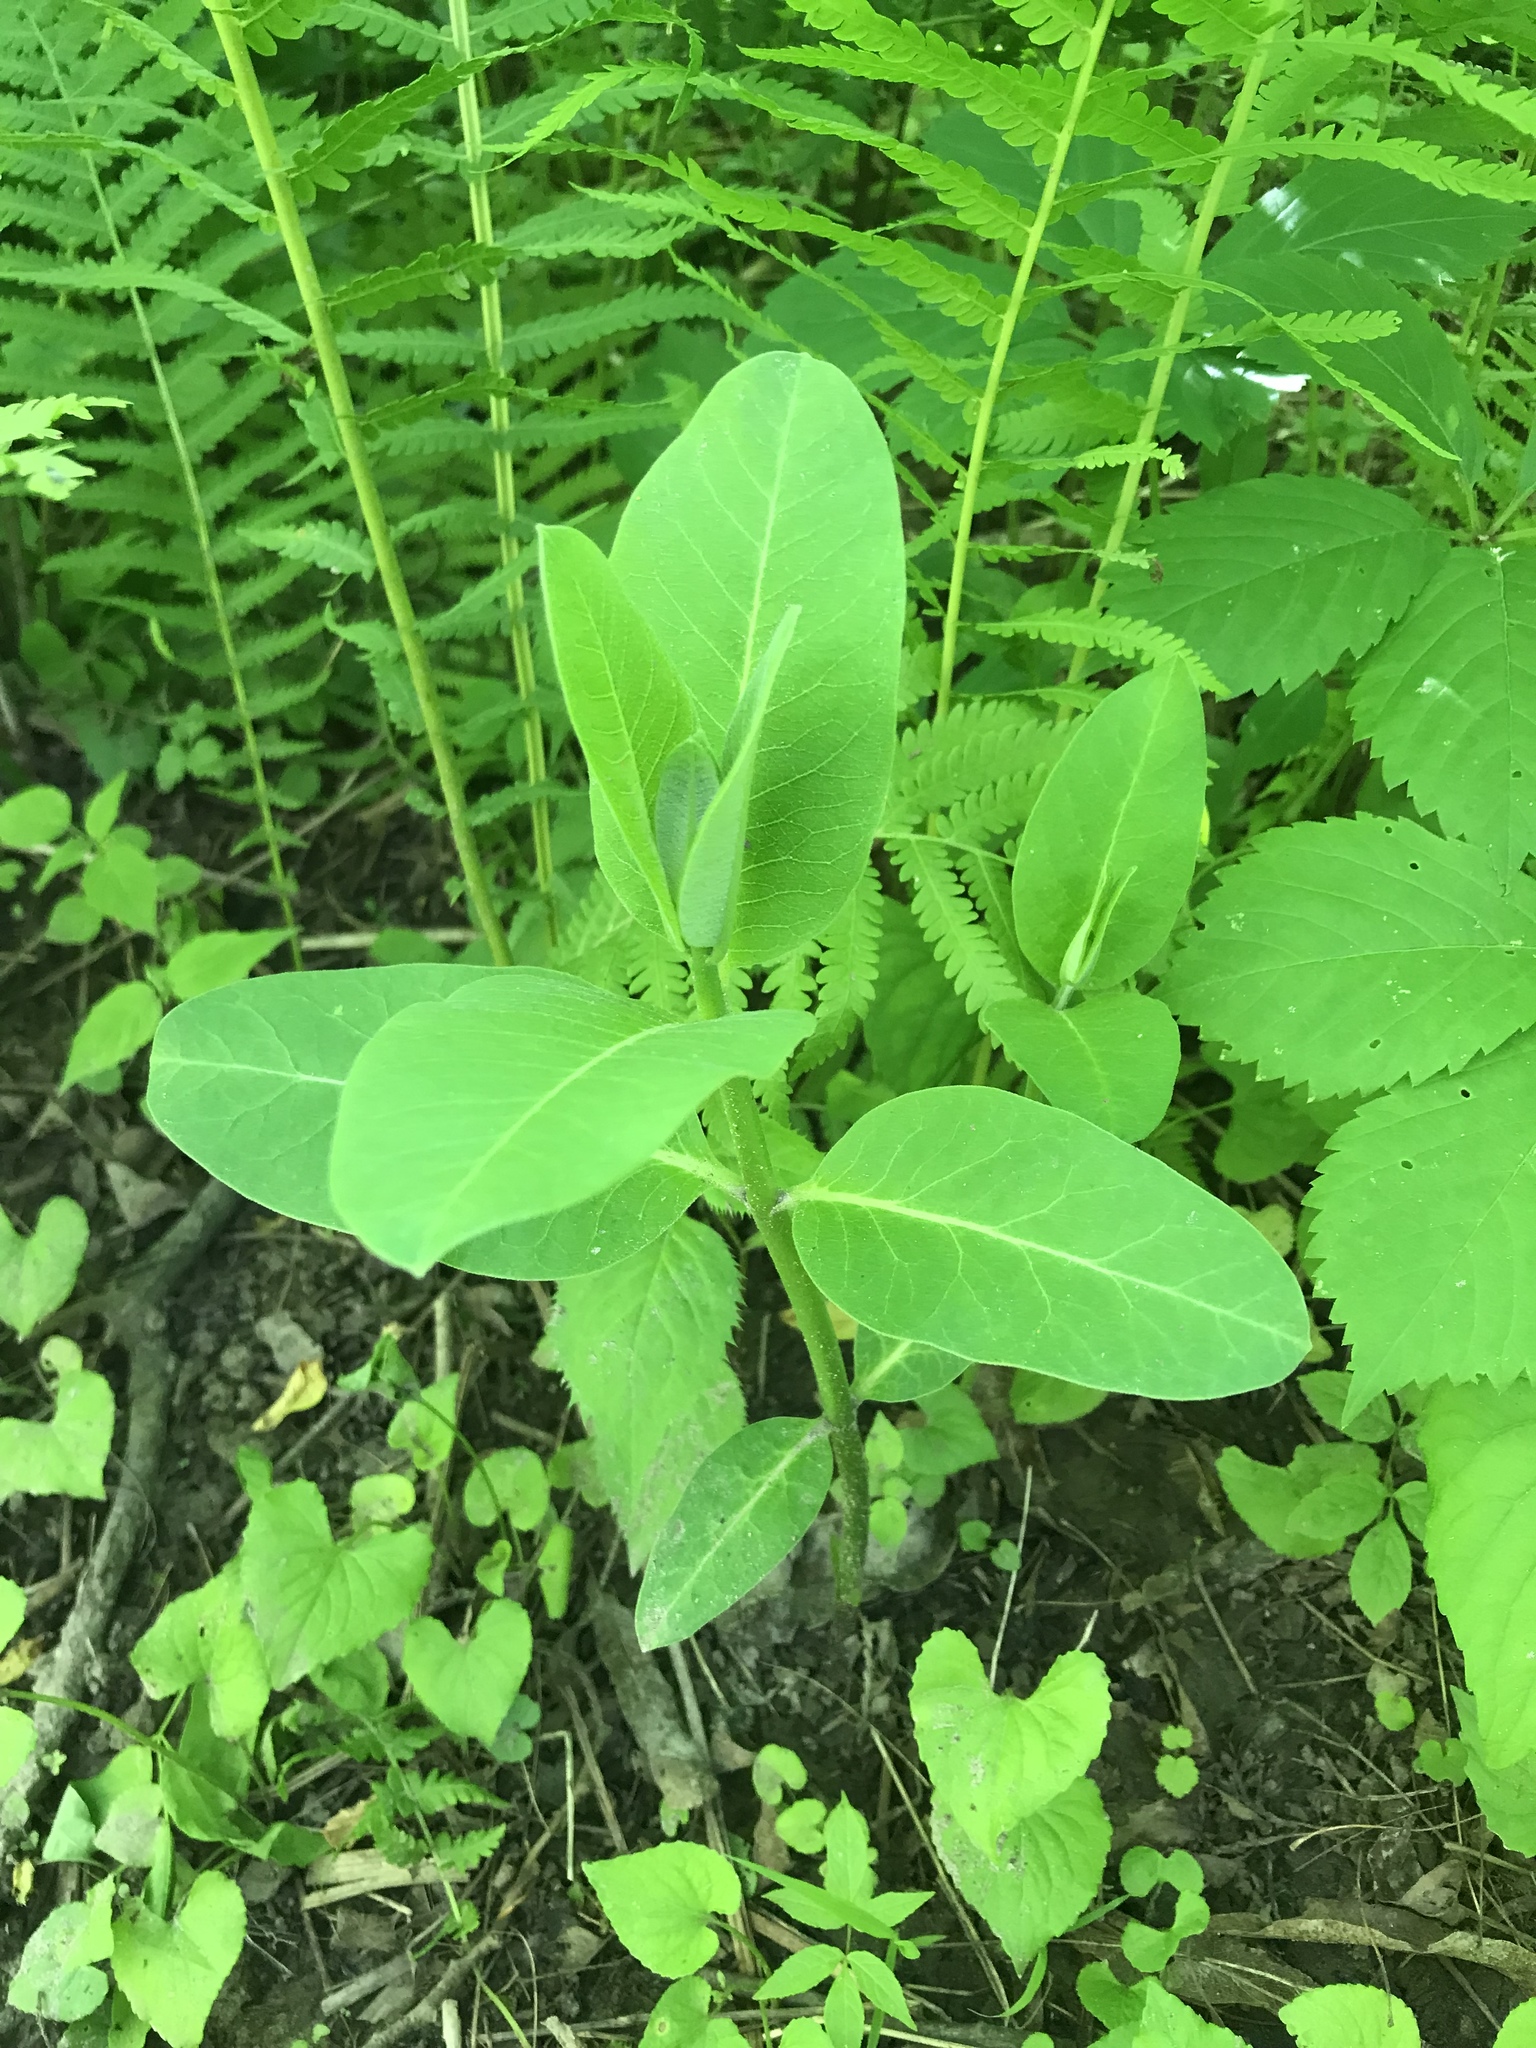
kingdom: Plantae
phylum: Tracheophyta
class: Magnoliopsida
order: Gentianales
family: Apocynaceae
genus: Asclepias
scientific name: Asclepias syriaca
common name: Common milkweed
